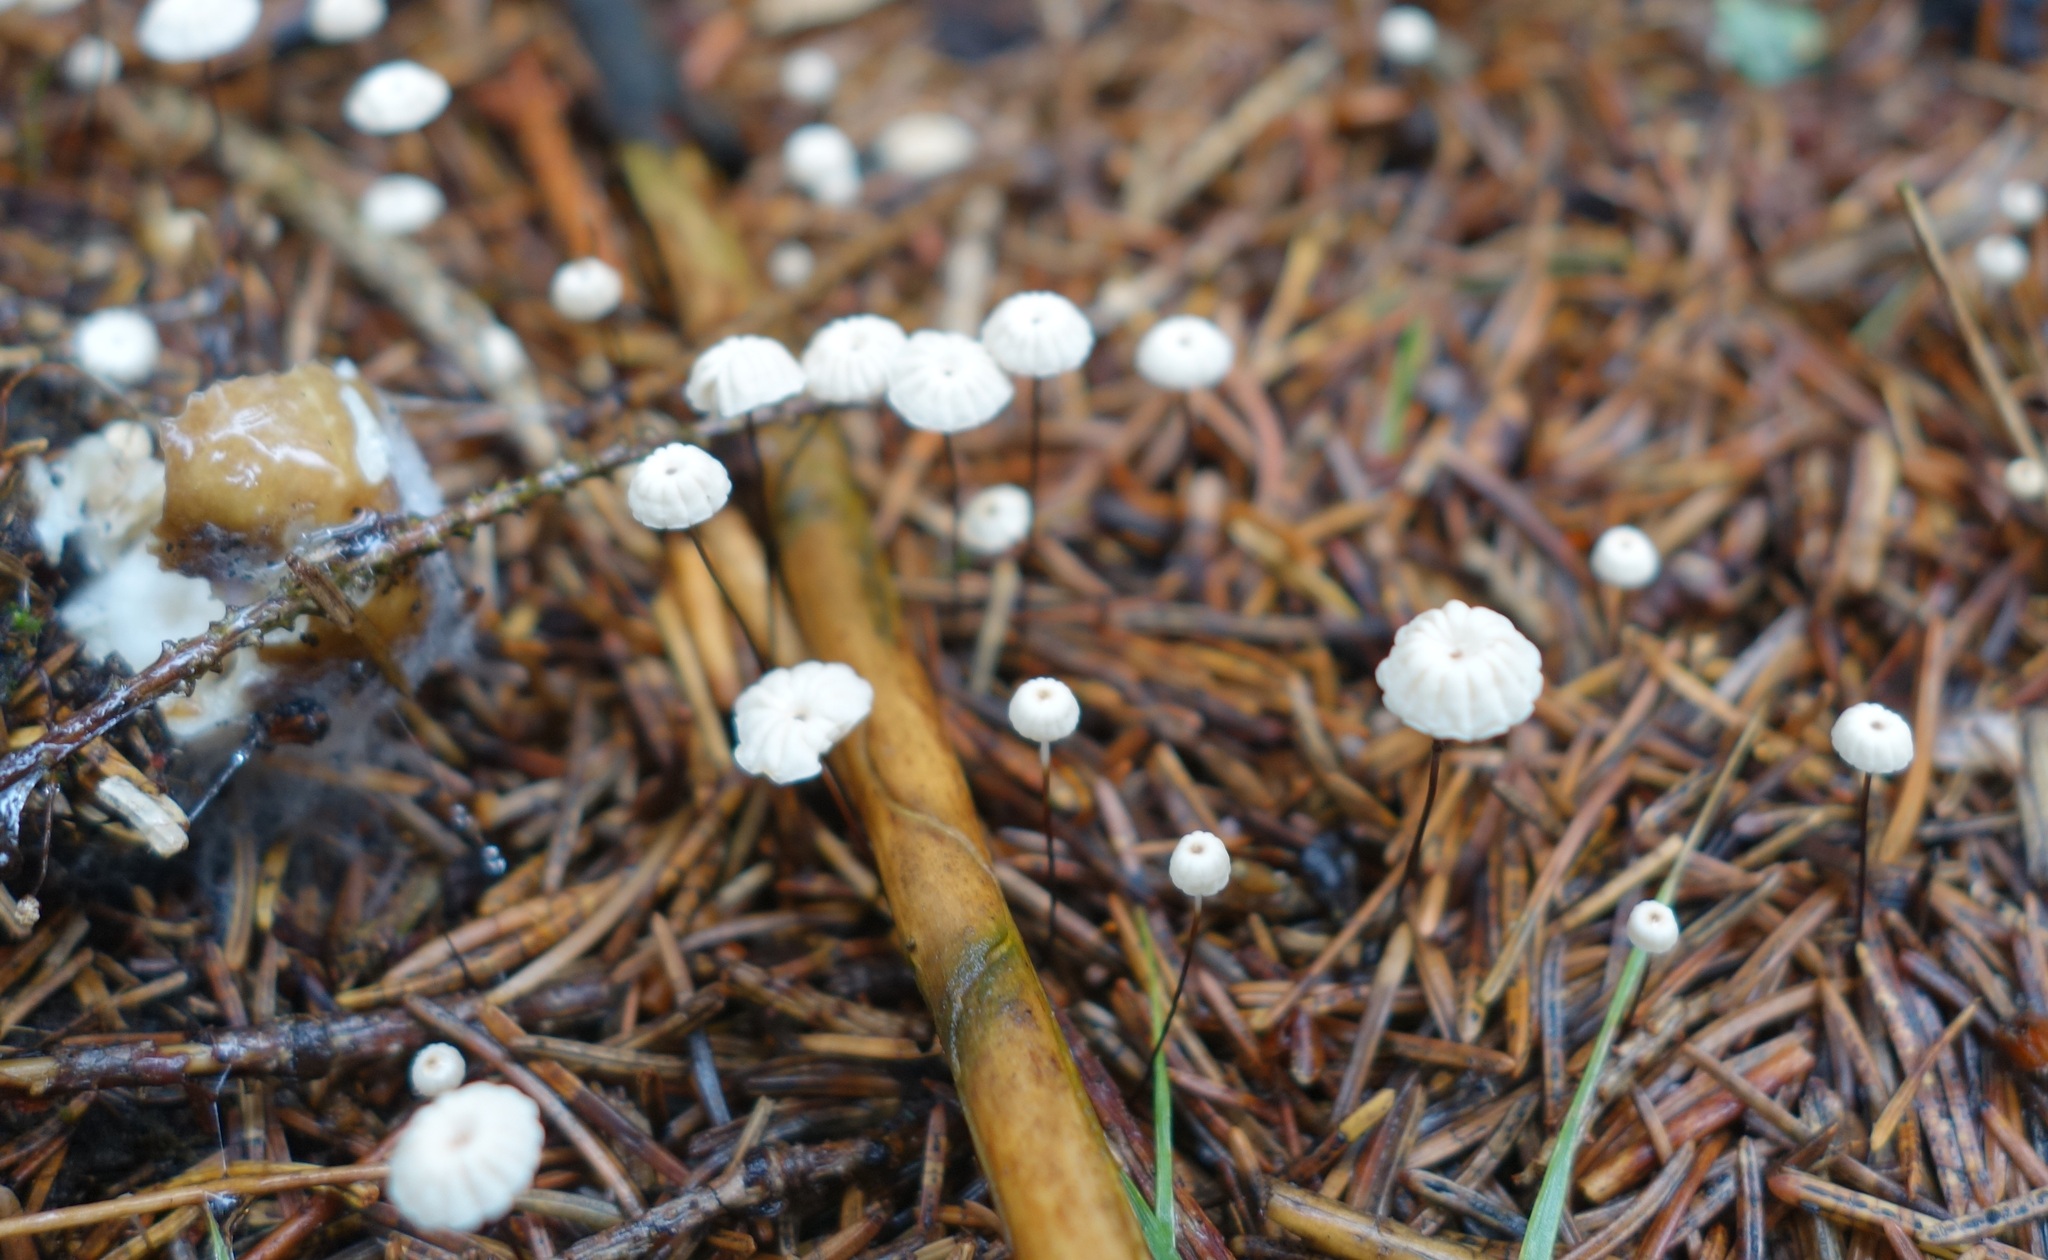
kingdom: Fungi
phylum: Basidiomycota
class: Agaricomycetes
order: Agaricales
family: Marasmiaceae
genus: Marasmius
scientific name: Marasmius rotula
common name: Collared parachute
